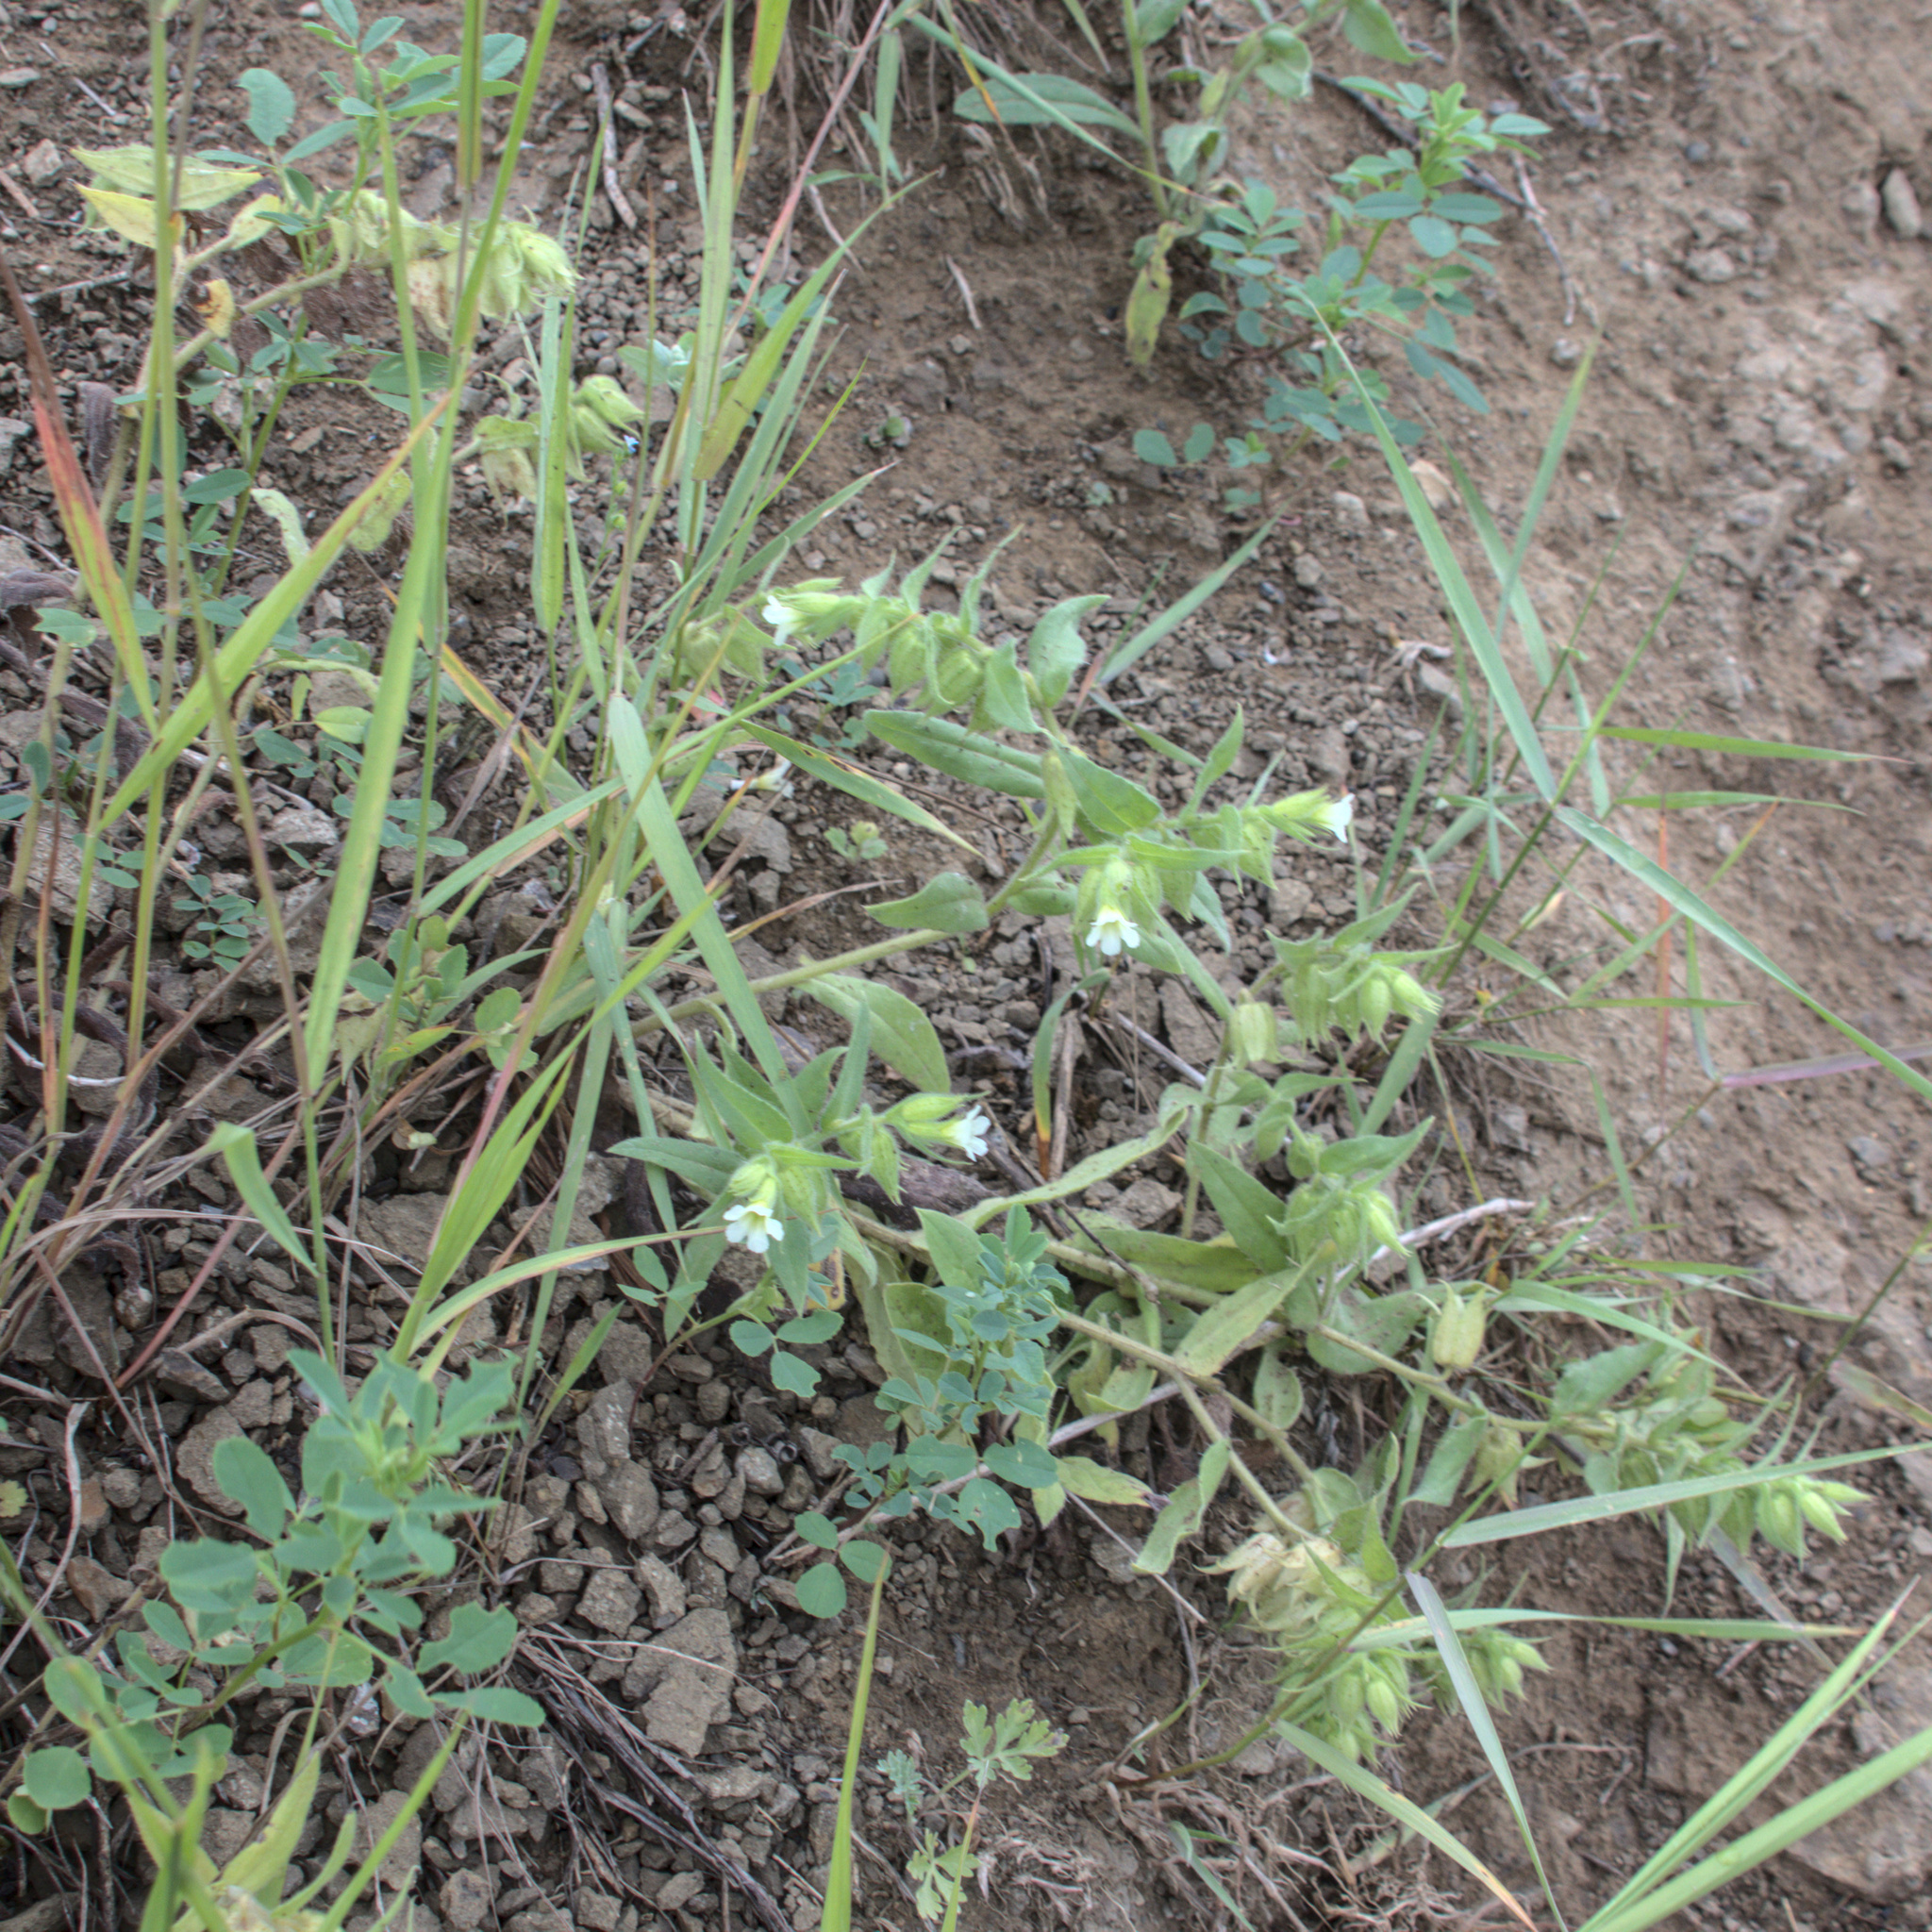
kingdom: Plantae
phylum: Tracheophyta
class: Magnoliopsida
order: Boraginales
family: Boraginaceae
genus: Nonea
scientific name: Nonea lutea
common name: Yellow nonea
